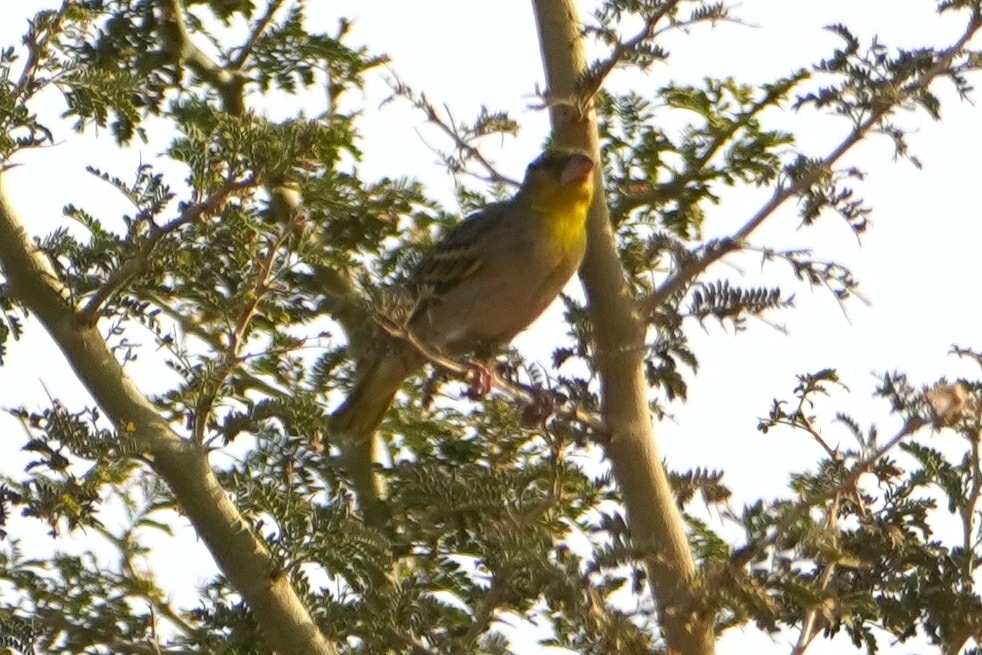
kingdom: Animalia
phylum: Chordata
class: Aves
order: Passeriformes
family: Ploceidae
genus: Ploceus
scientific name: Ploceus cucullatus
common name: Village weaver
